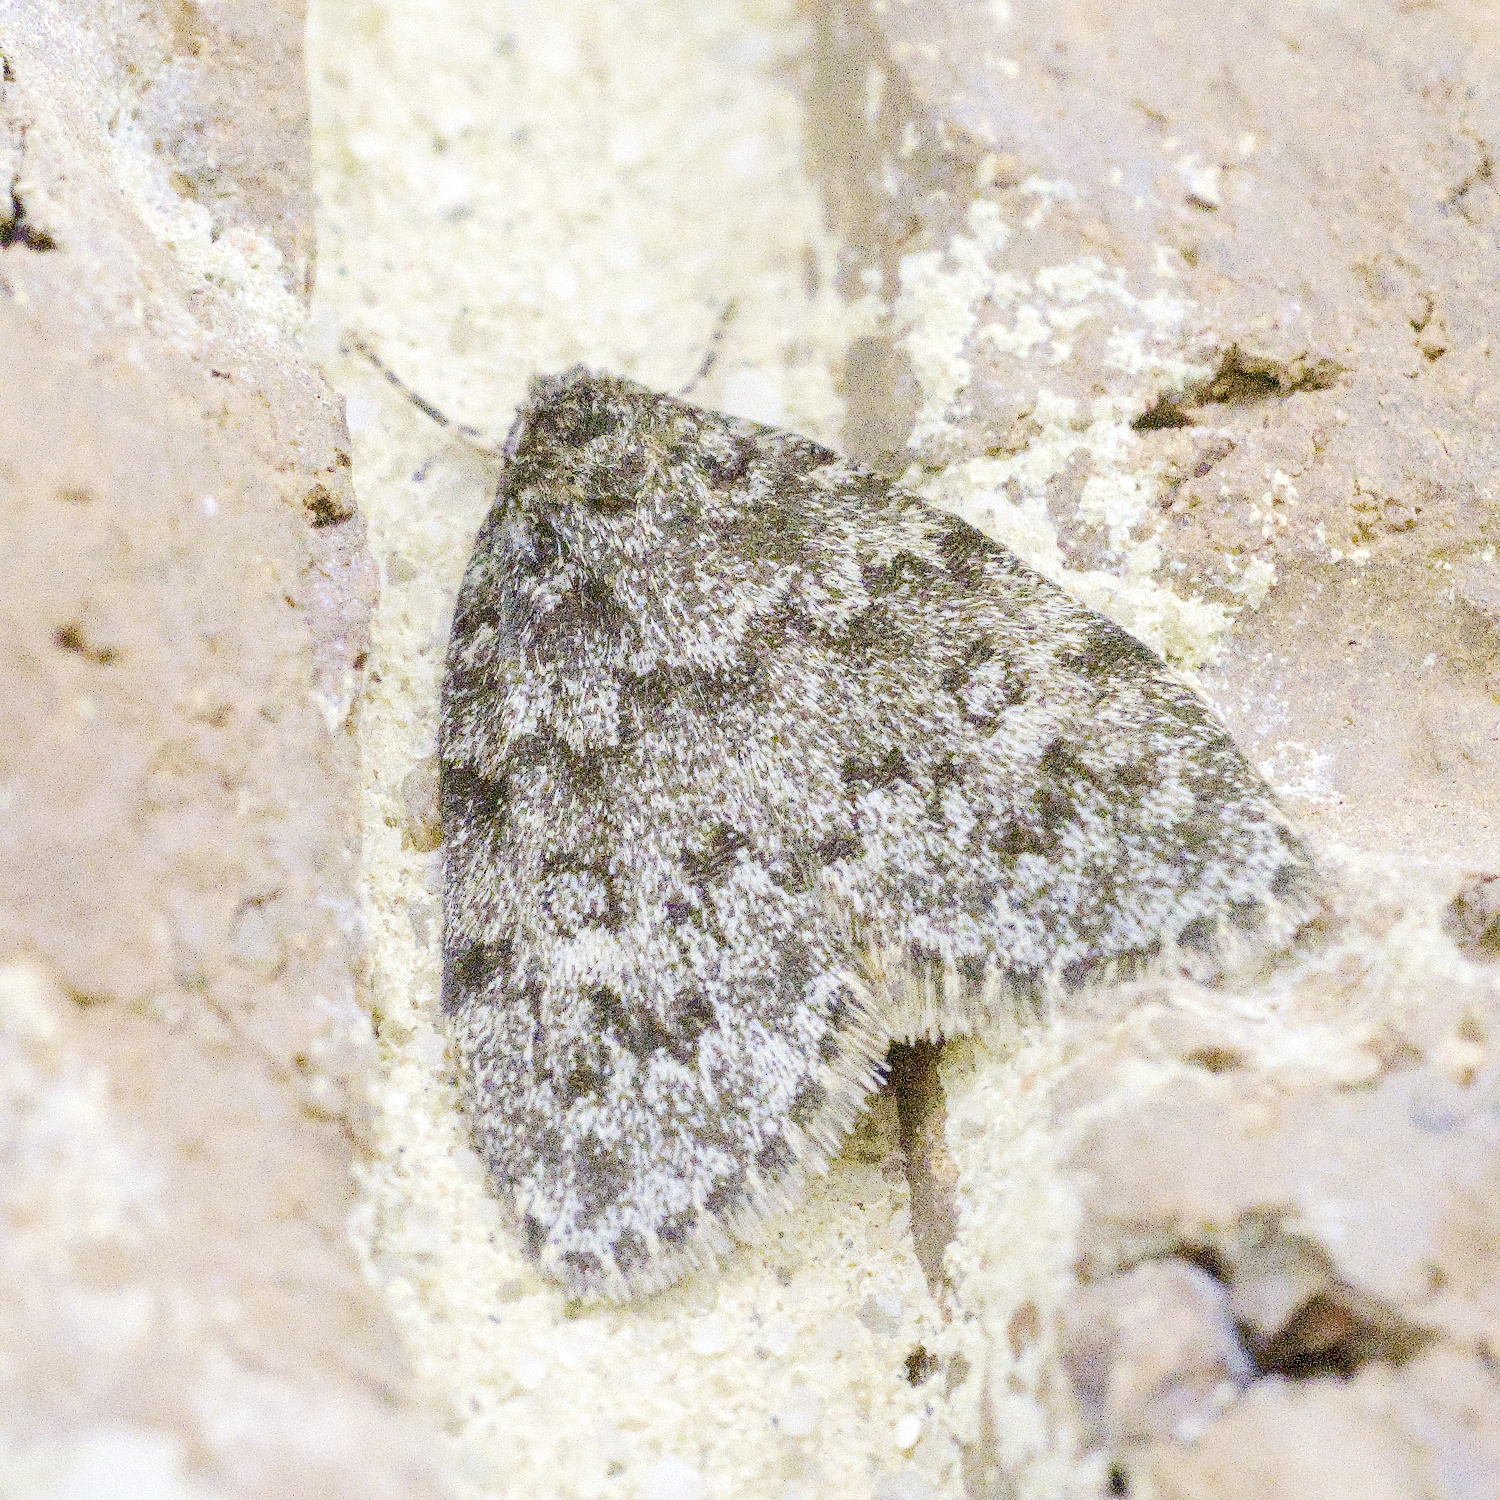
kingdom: Animalia
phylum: Arthropoda
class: Insecta
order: Lepidoptera
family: Erebidae
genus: Halone
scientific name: Halone consolatrix
